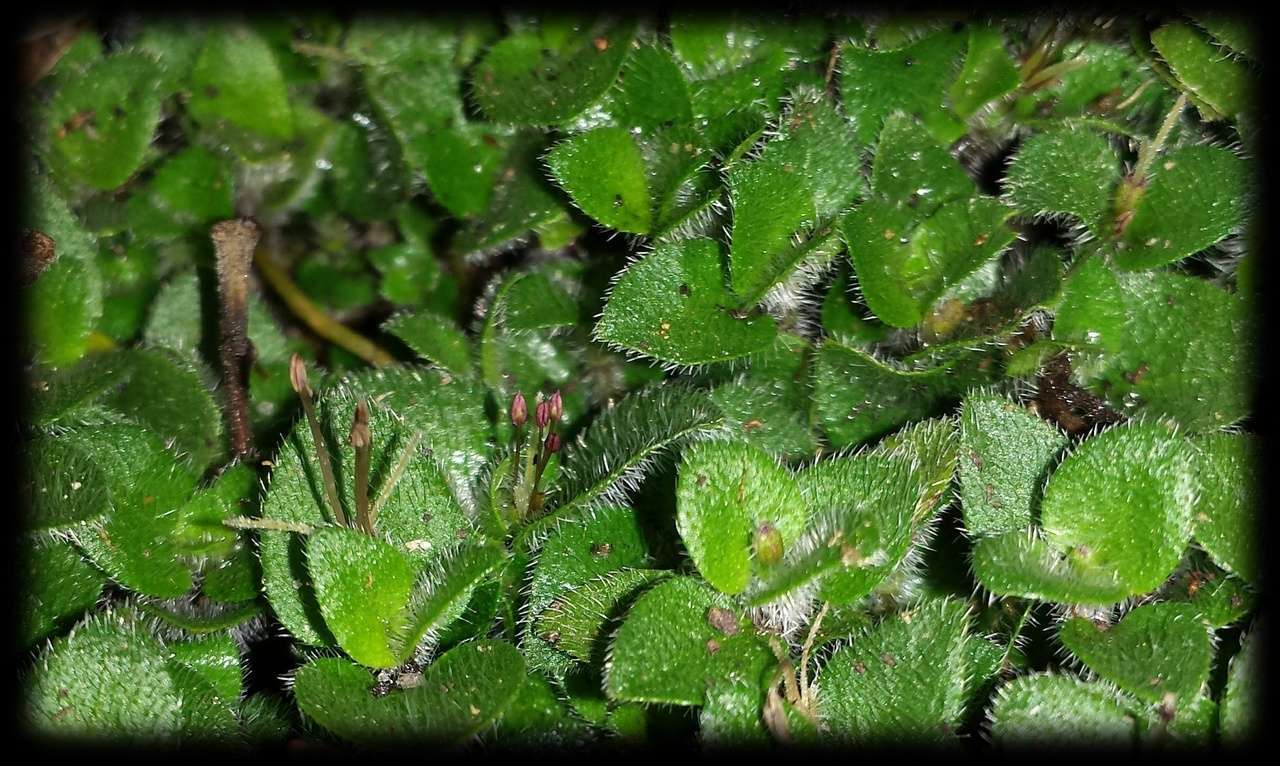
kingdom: Plantae
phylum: Tracheophyta
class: Magnoliopsida
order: Gentianales
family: Rubiaceae
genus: Leptostigma
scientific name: Leptostigma breviflorum
